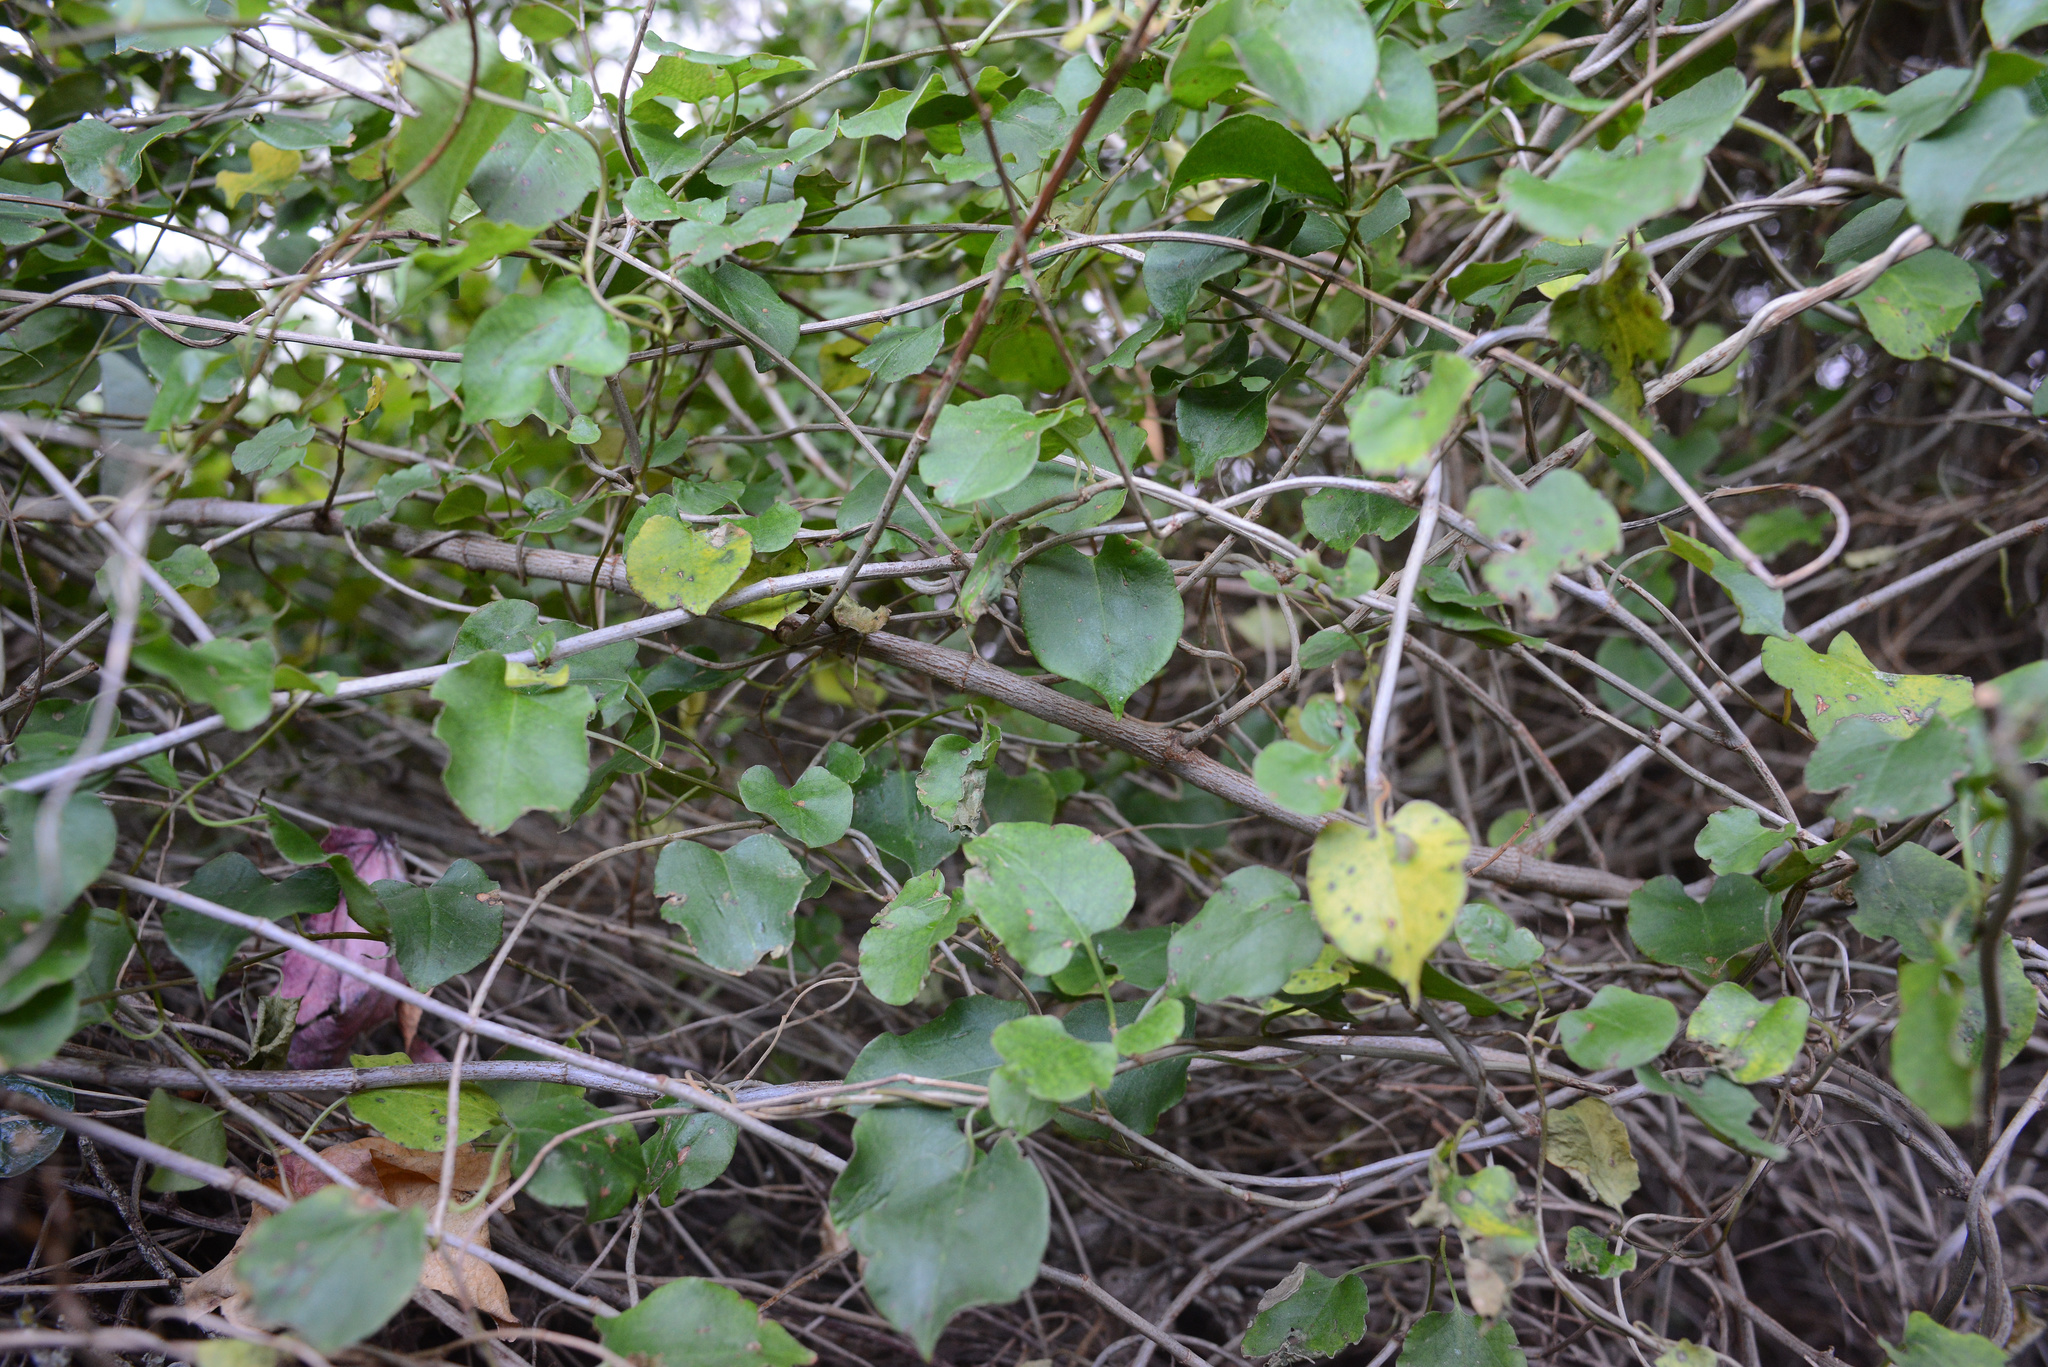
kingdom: Plantae
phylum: Tracheophyta
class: Magnoliopsida
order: Caryophyllales
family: Polygonaceae
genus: Muehlenbeckia
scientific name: Muehlenbeckia australis
